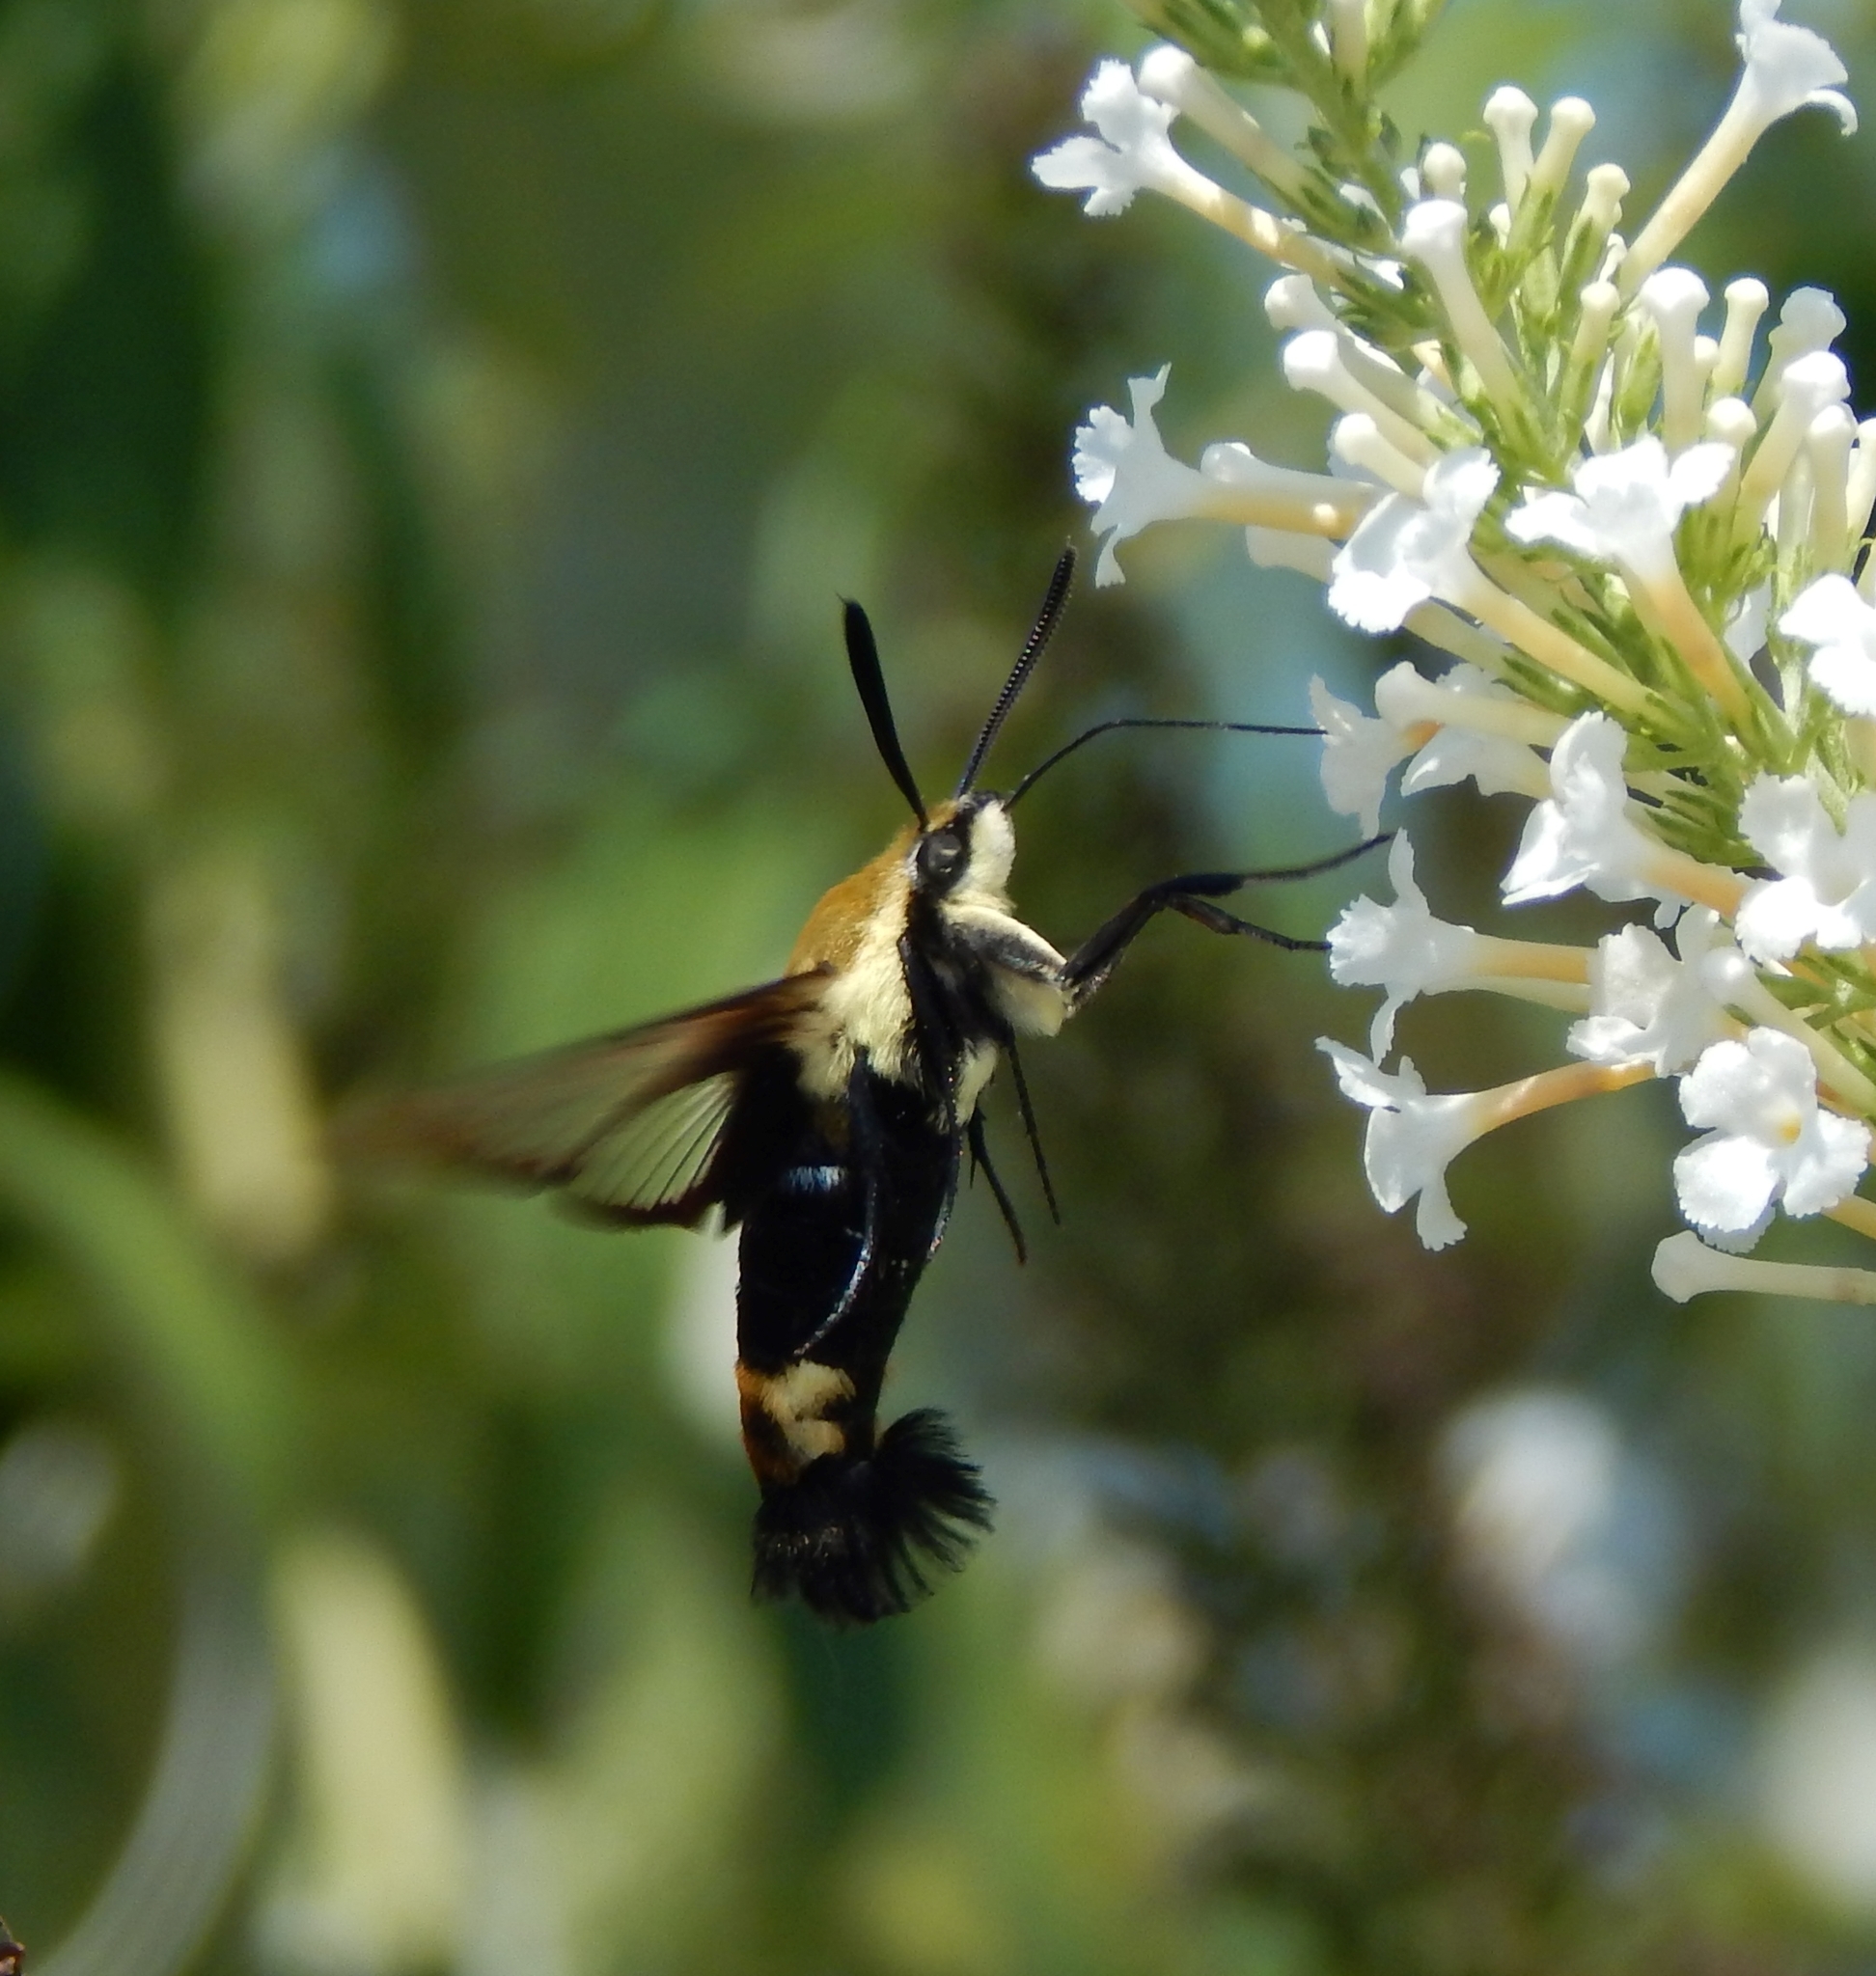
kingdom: Animalia
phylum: Arthropoda
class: Insecta
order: Lepidoptera
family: Sphingidae
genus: Hemaris
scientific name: Hemaris diffinis
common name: Bumblebee moth
